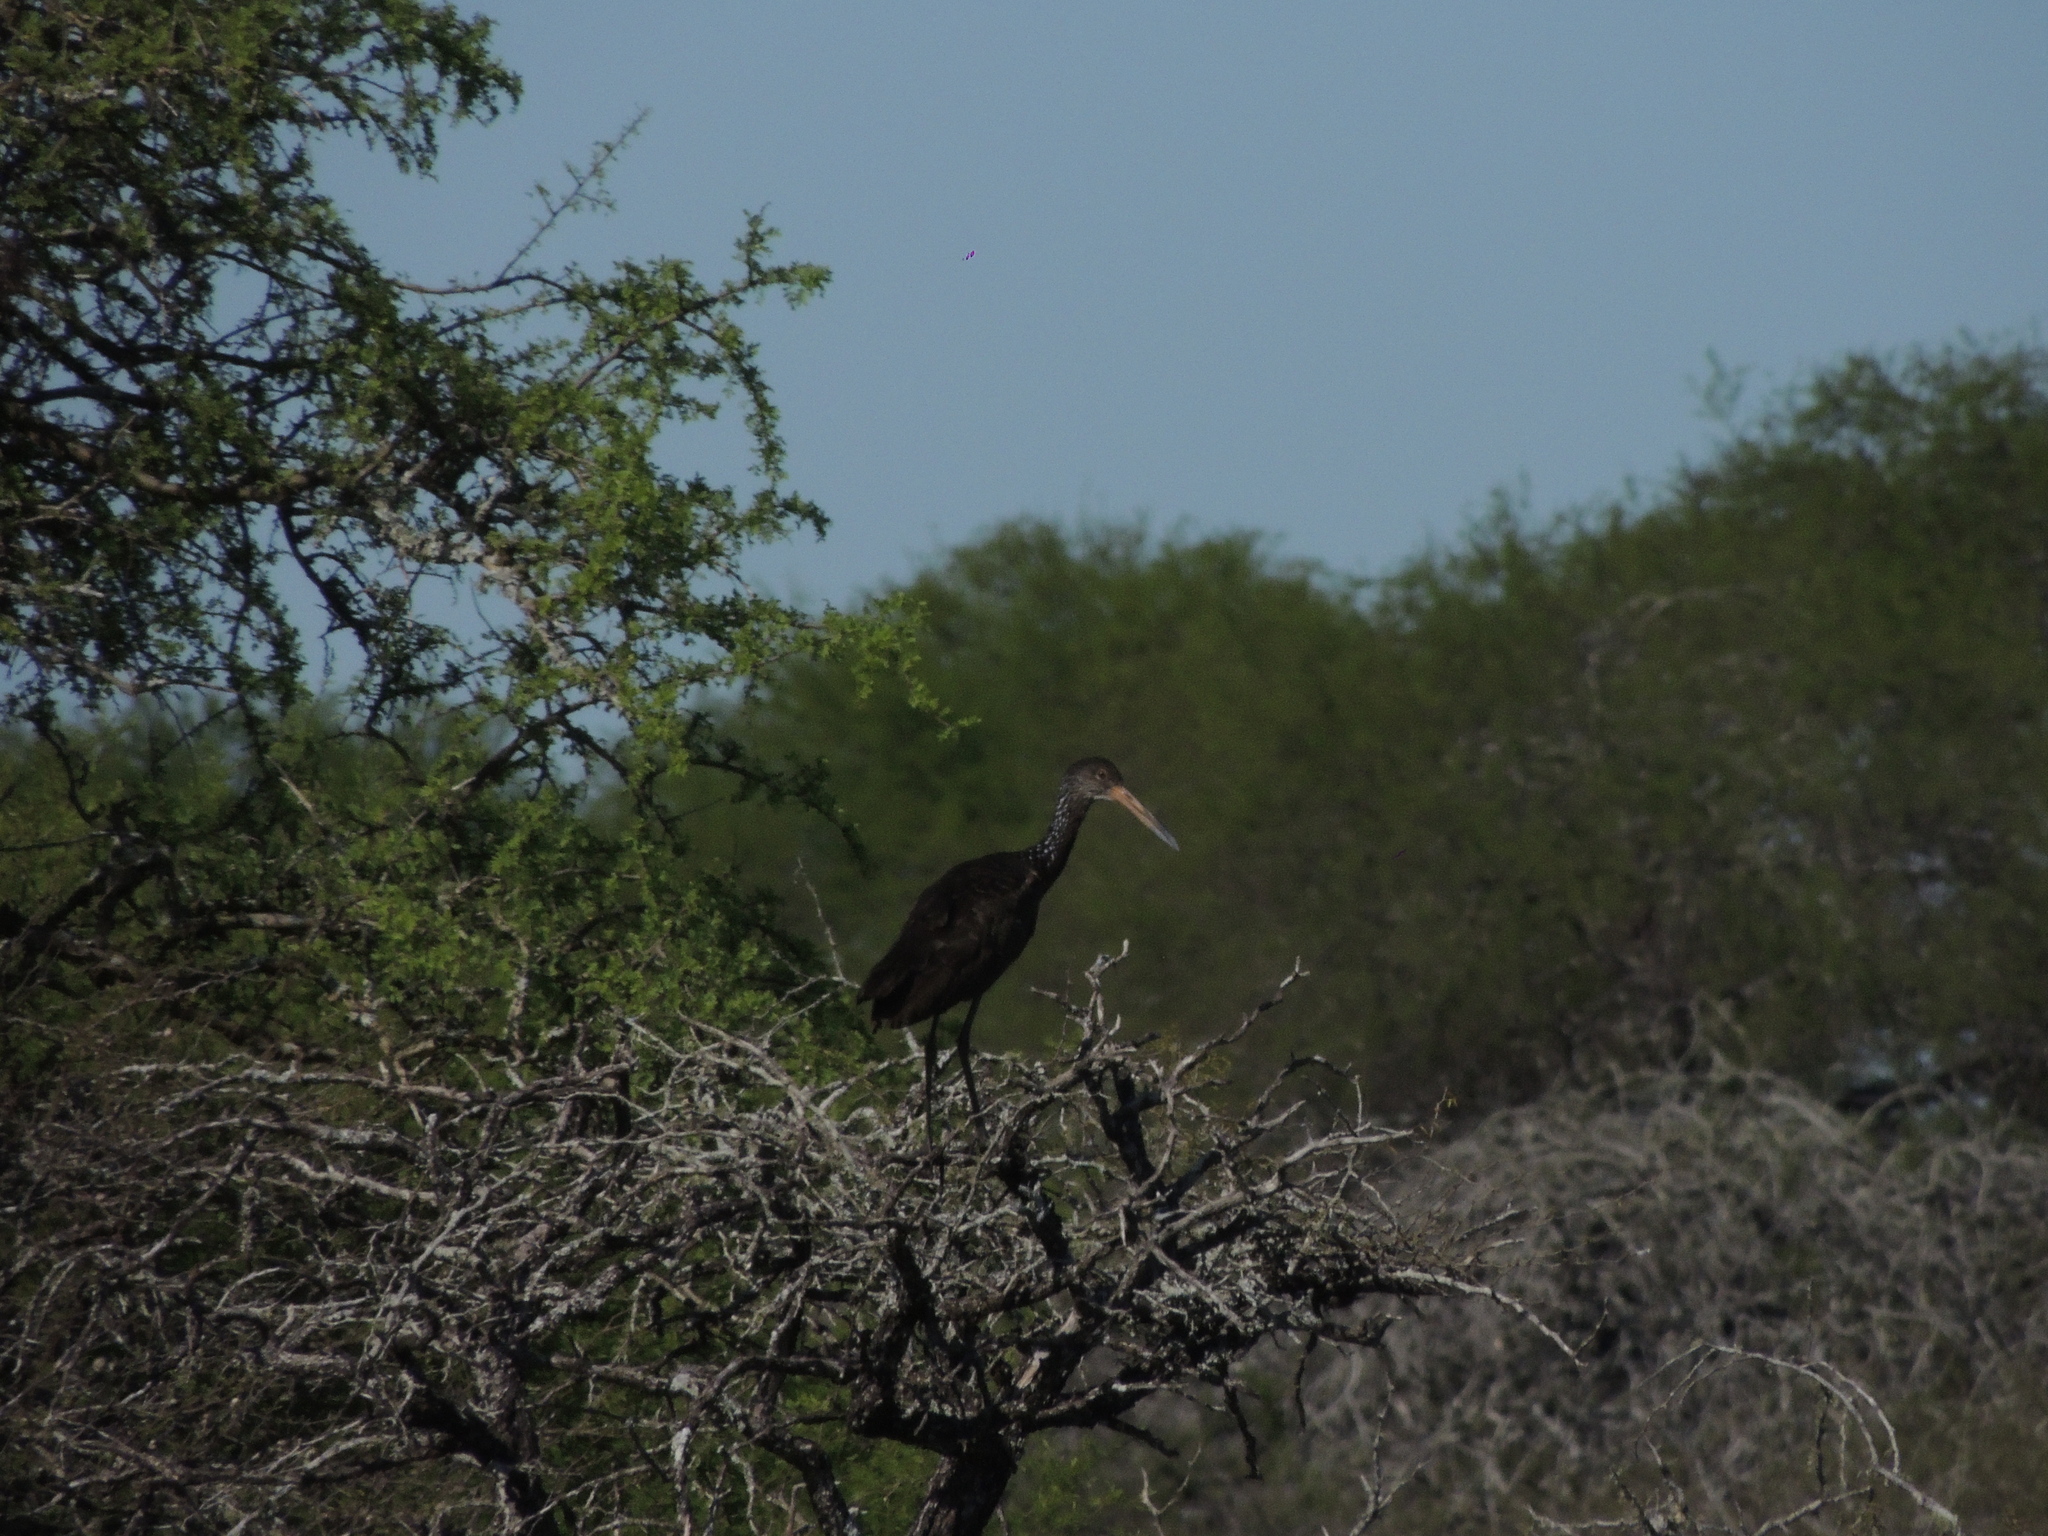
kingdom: Animalia
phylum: Chordata
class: Aves
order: Gruiformes
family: Aramidae
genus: Aramus
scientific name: Aramus guarauna
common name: Limpkin
